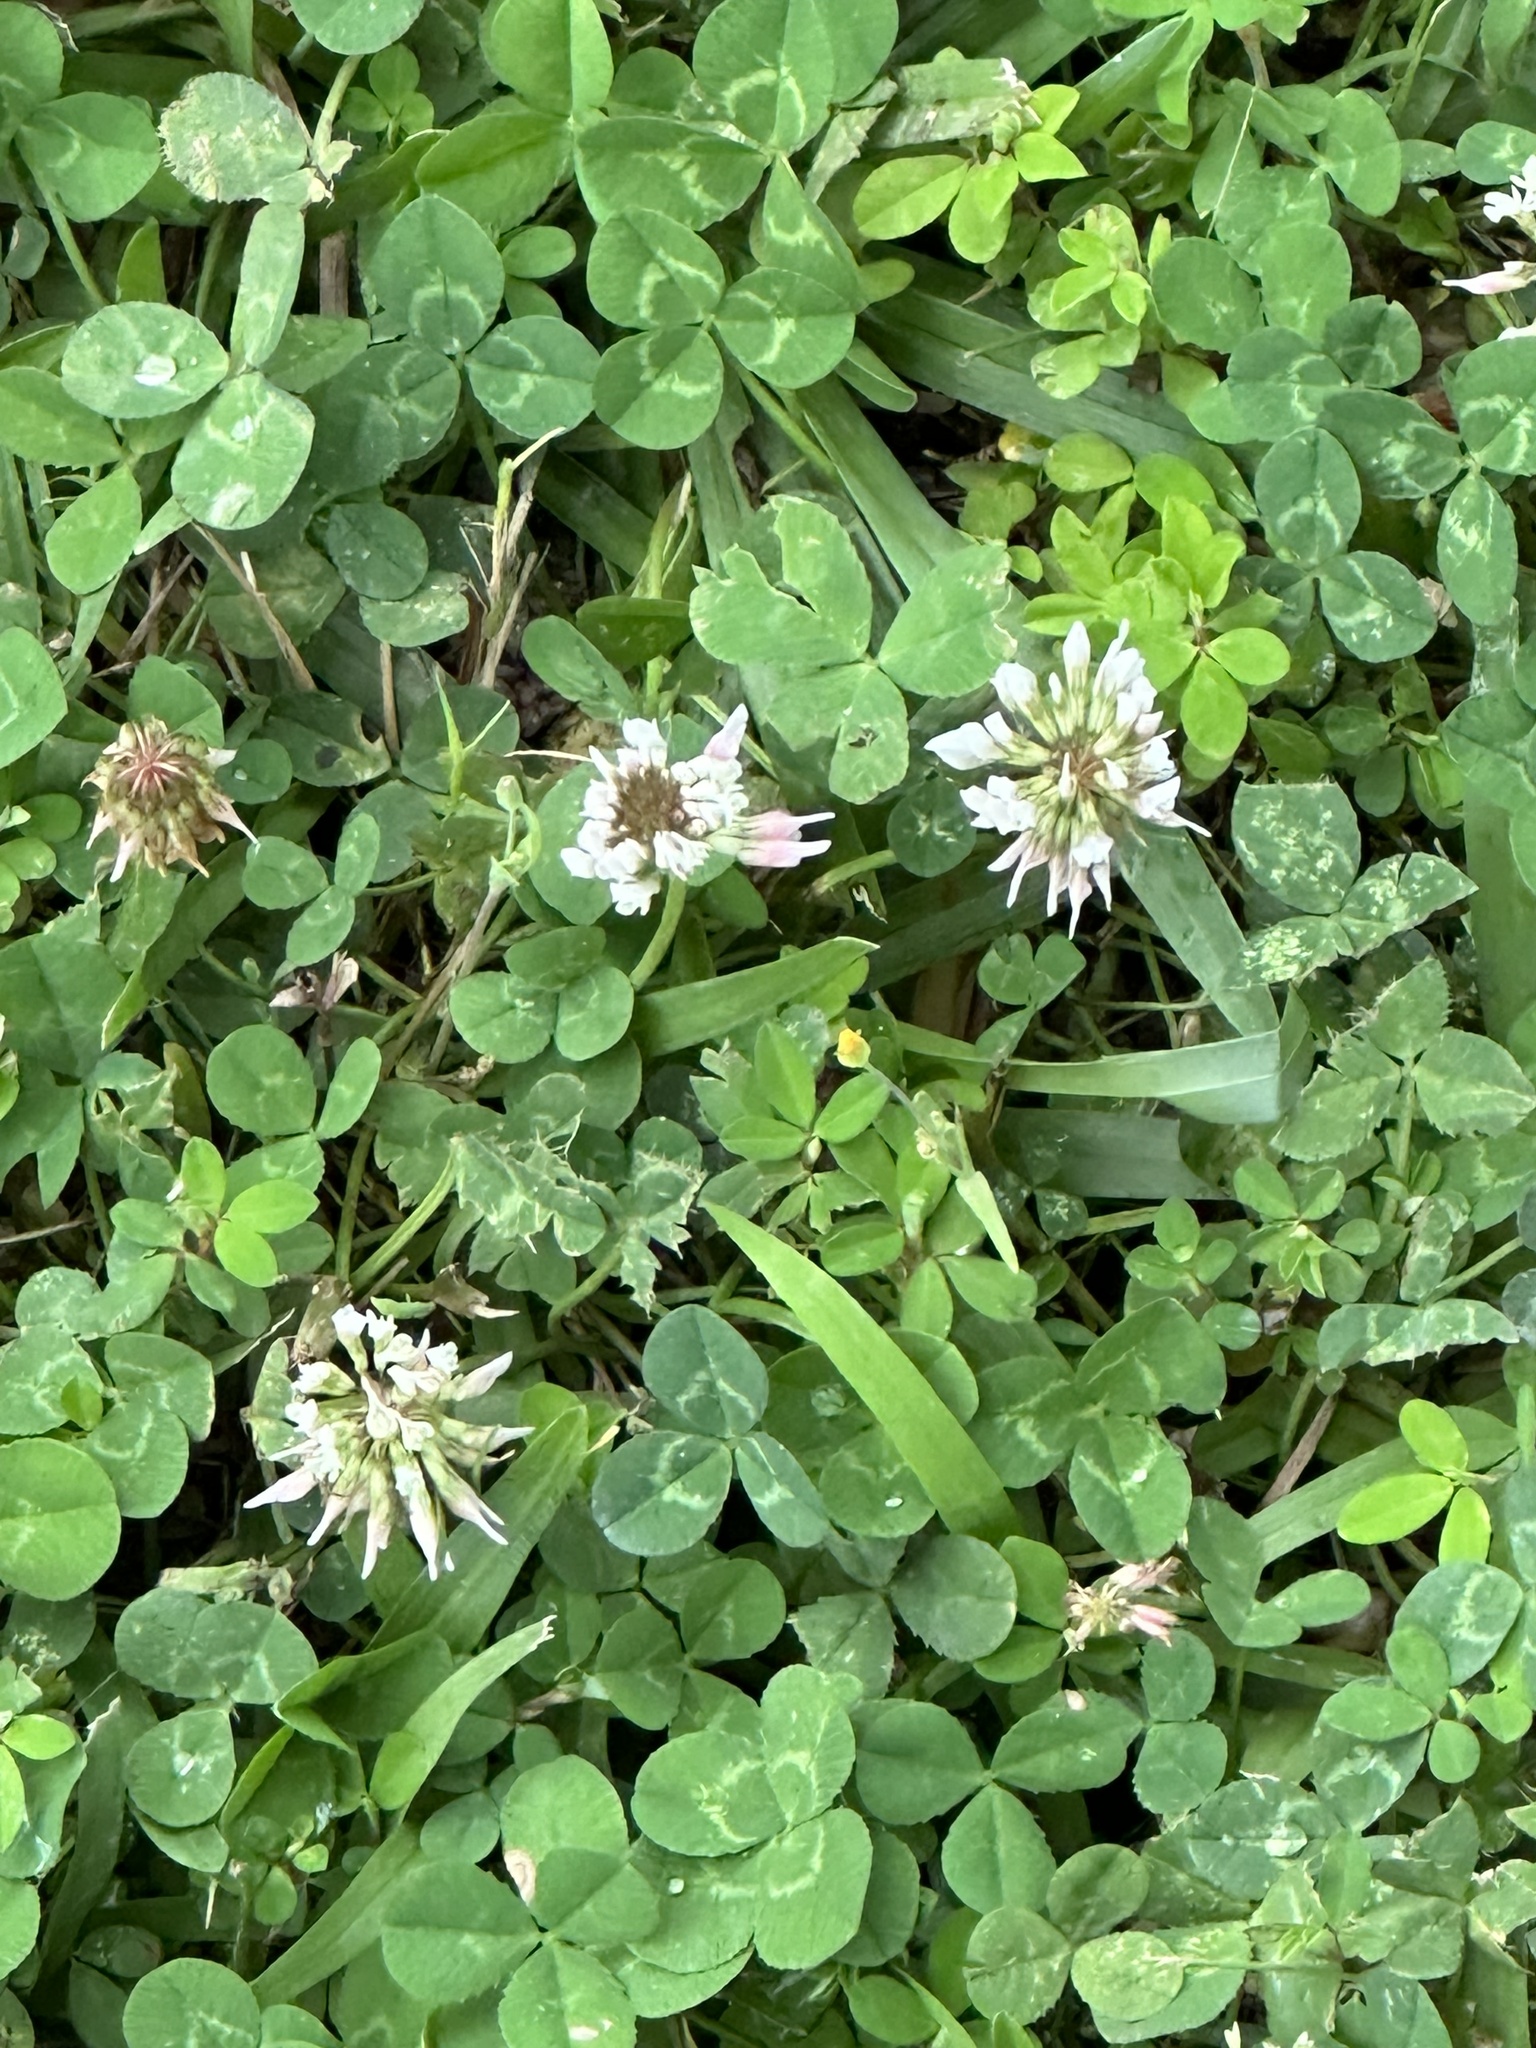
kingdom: Plantae
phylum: Tracheophyta
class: Magnoliopsida
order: Fabales
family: Fabaceae
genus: Trifolium
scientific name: Trifolium repens
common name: White clover
